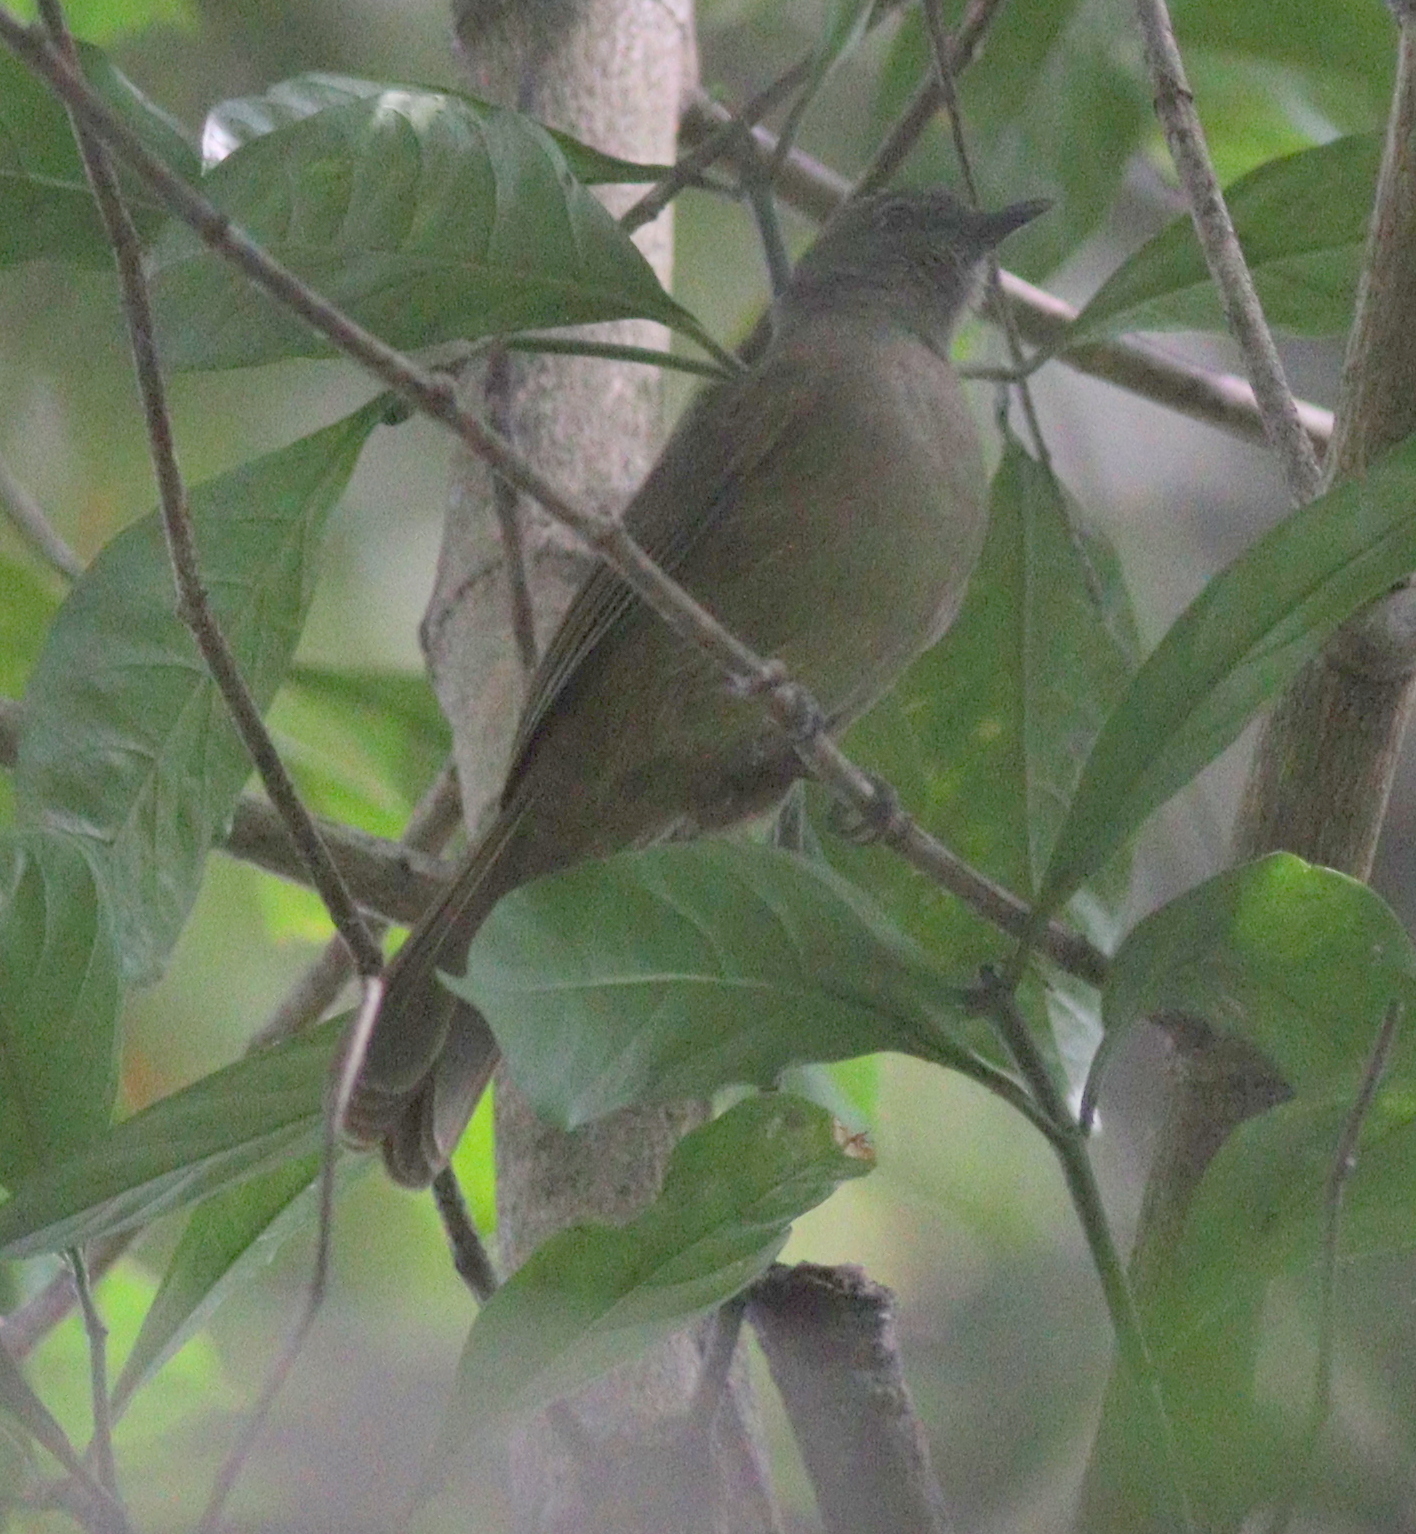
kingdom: Animalia
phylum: Chordata
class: Aves
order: Passeriformes
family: Pycnonotidae
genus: Eurillas
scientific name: Eurillas curvirostris
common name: Plain greenbul
